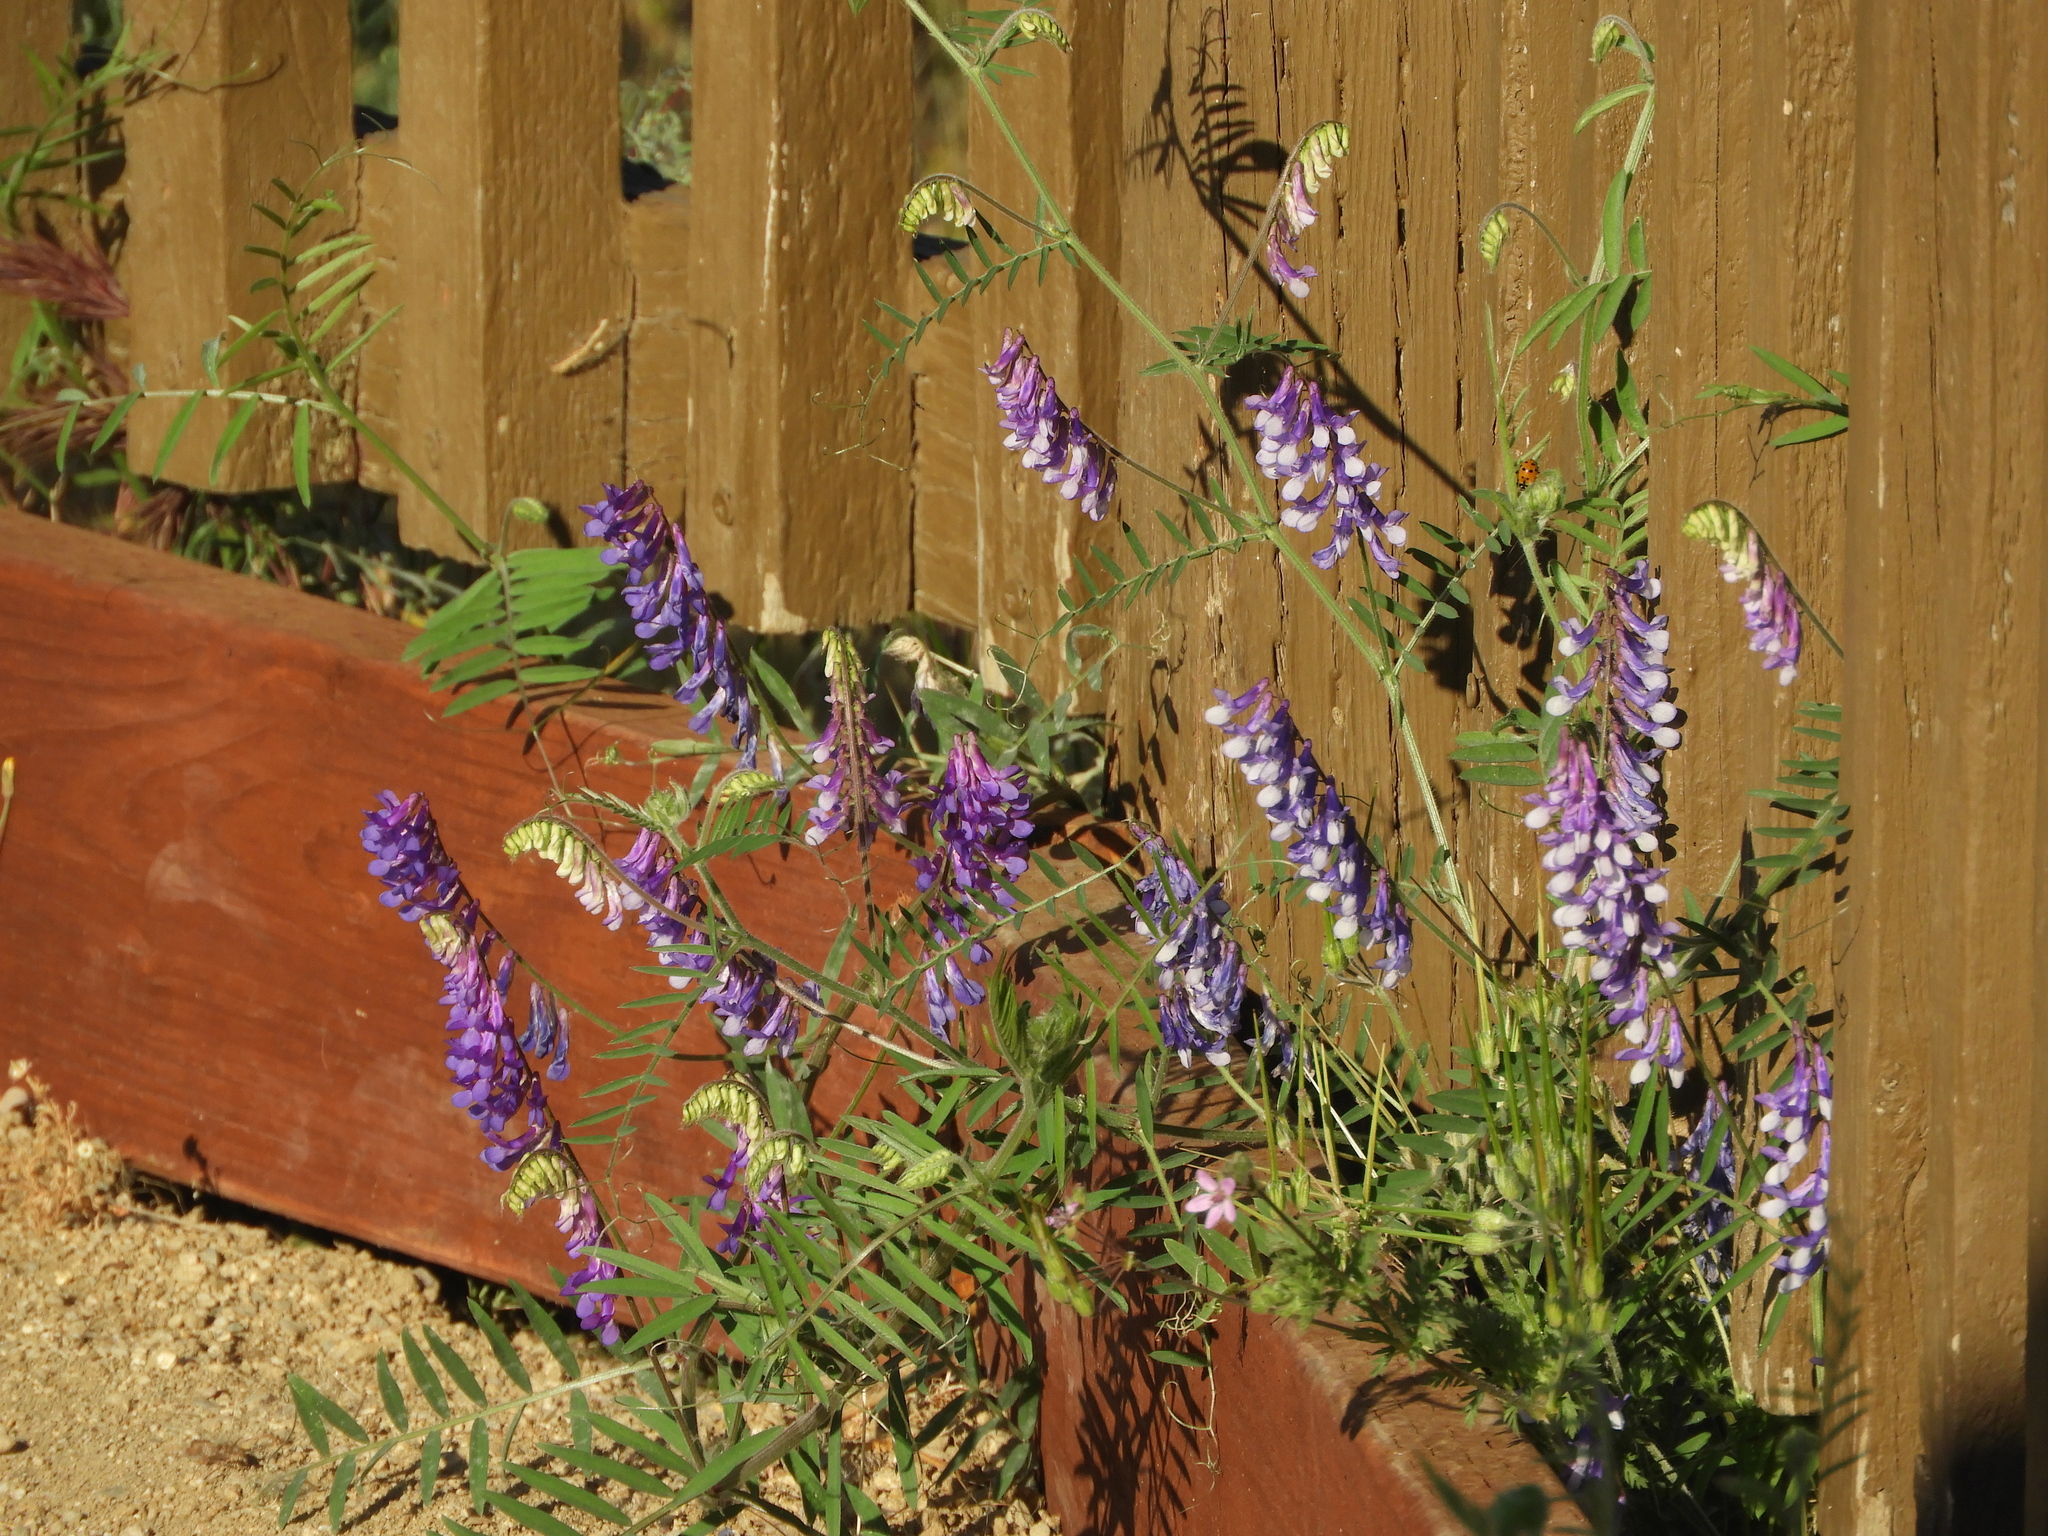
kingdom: Plantae
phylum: Tracheophyta
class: Magnoliopsida
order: Fabales
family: Fabaceae
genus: Vicia
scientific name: Vicia villosa
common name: Fodder vetch
